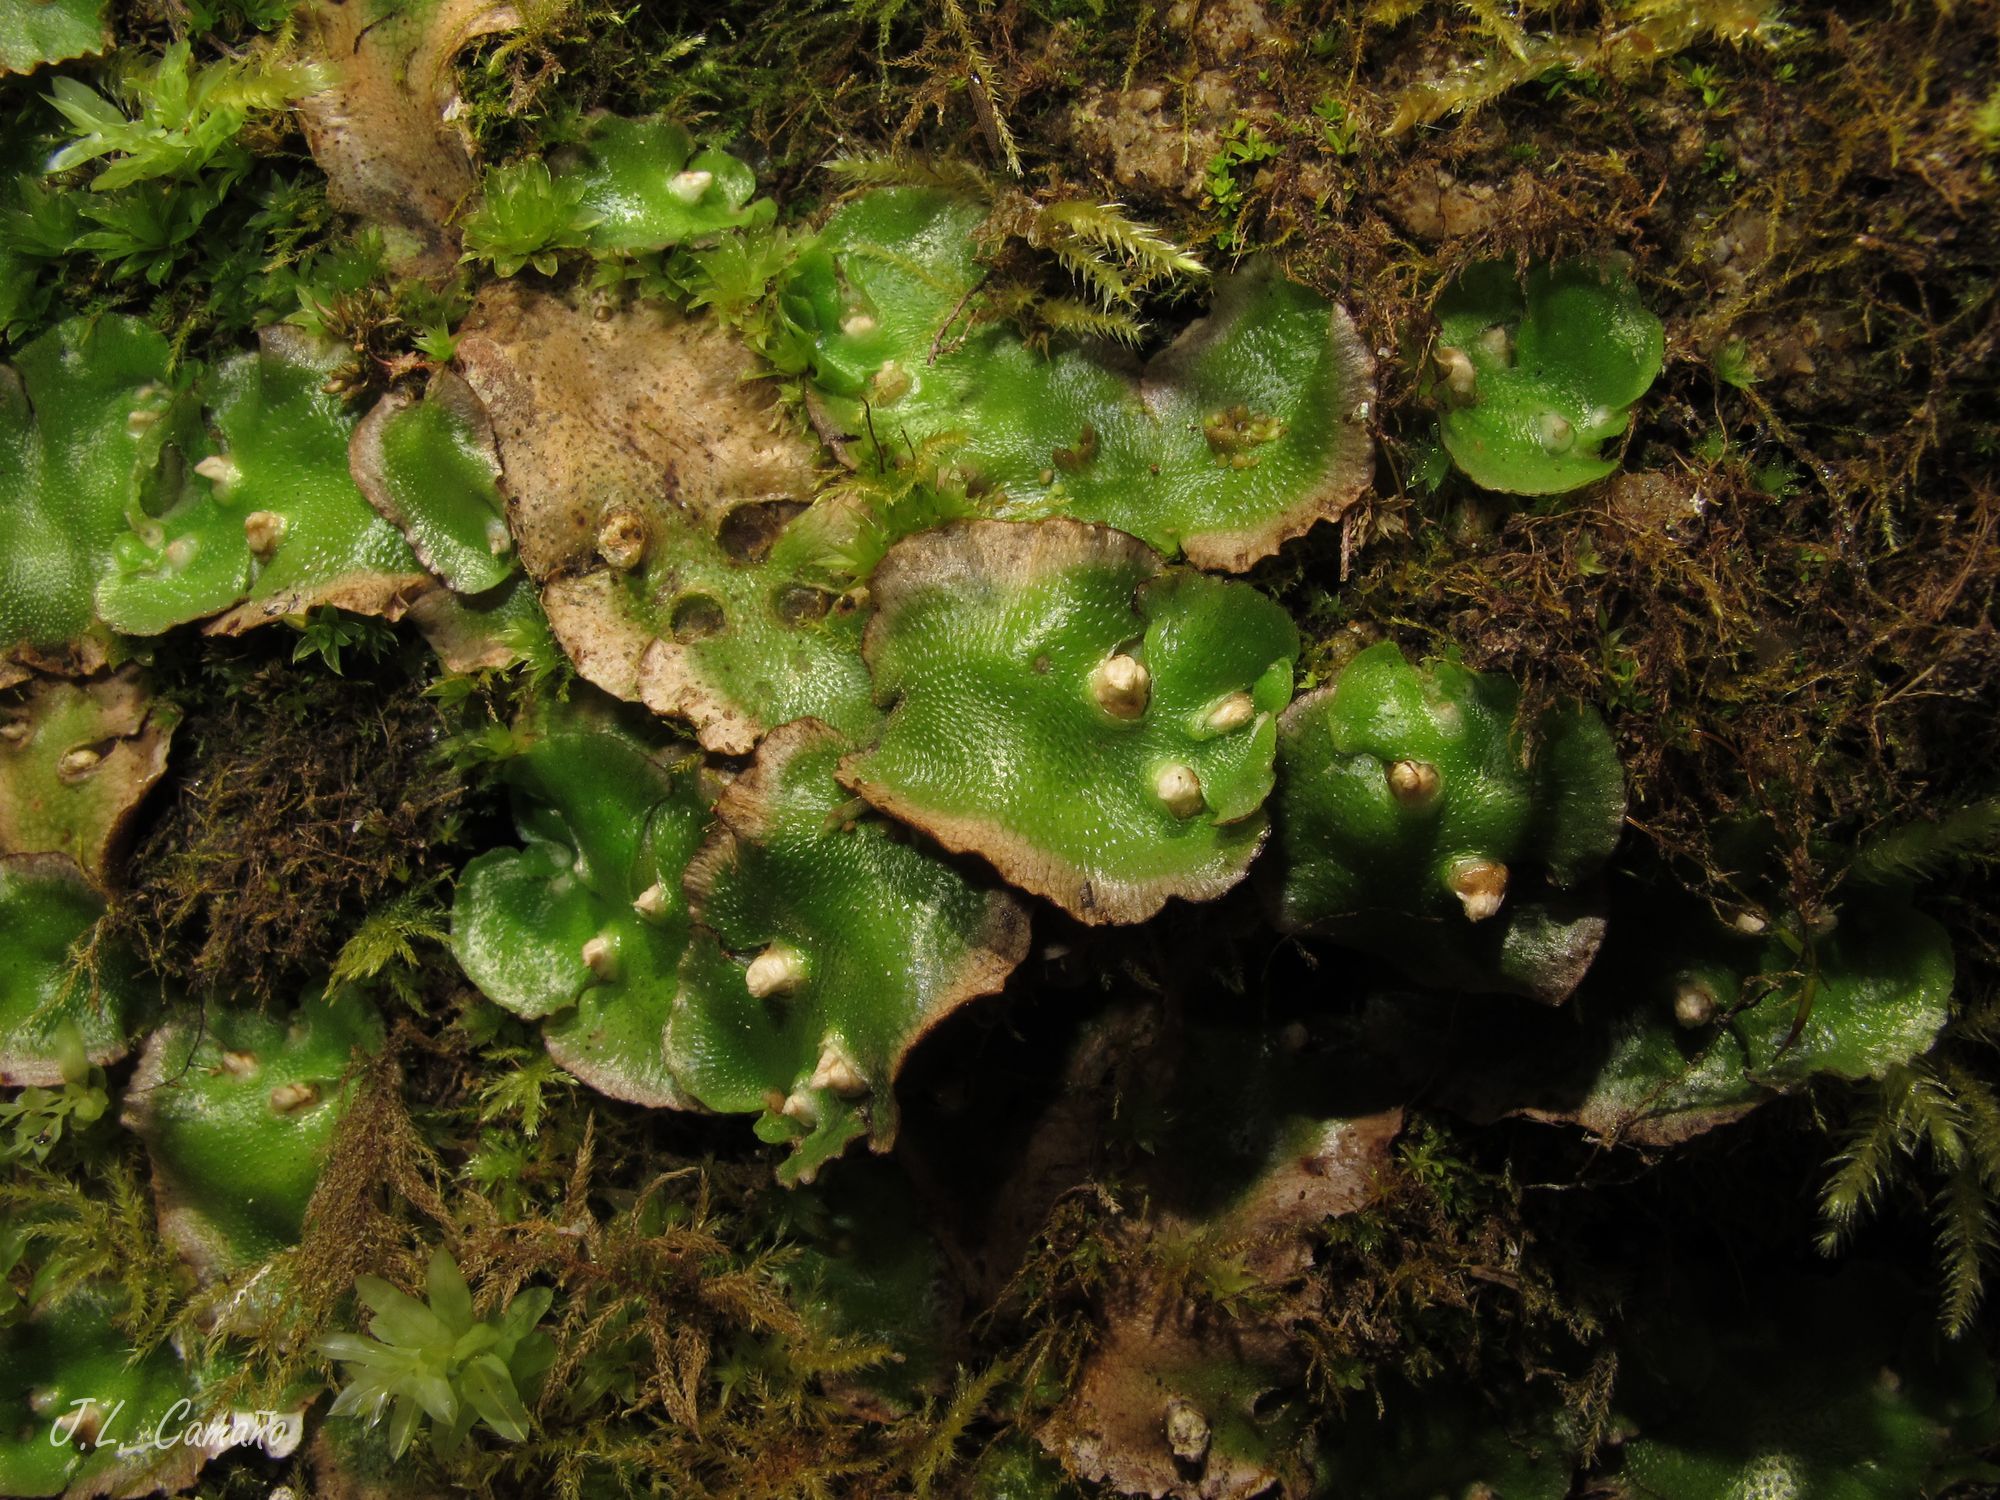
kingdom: Plantae
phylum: Marchantiophyta
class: Marchantiopsida
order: Lunulariales
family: Lunulariaceae
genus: Lunularia
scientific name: Lunularia cruciata
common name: Crescent-cup liverwort
